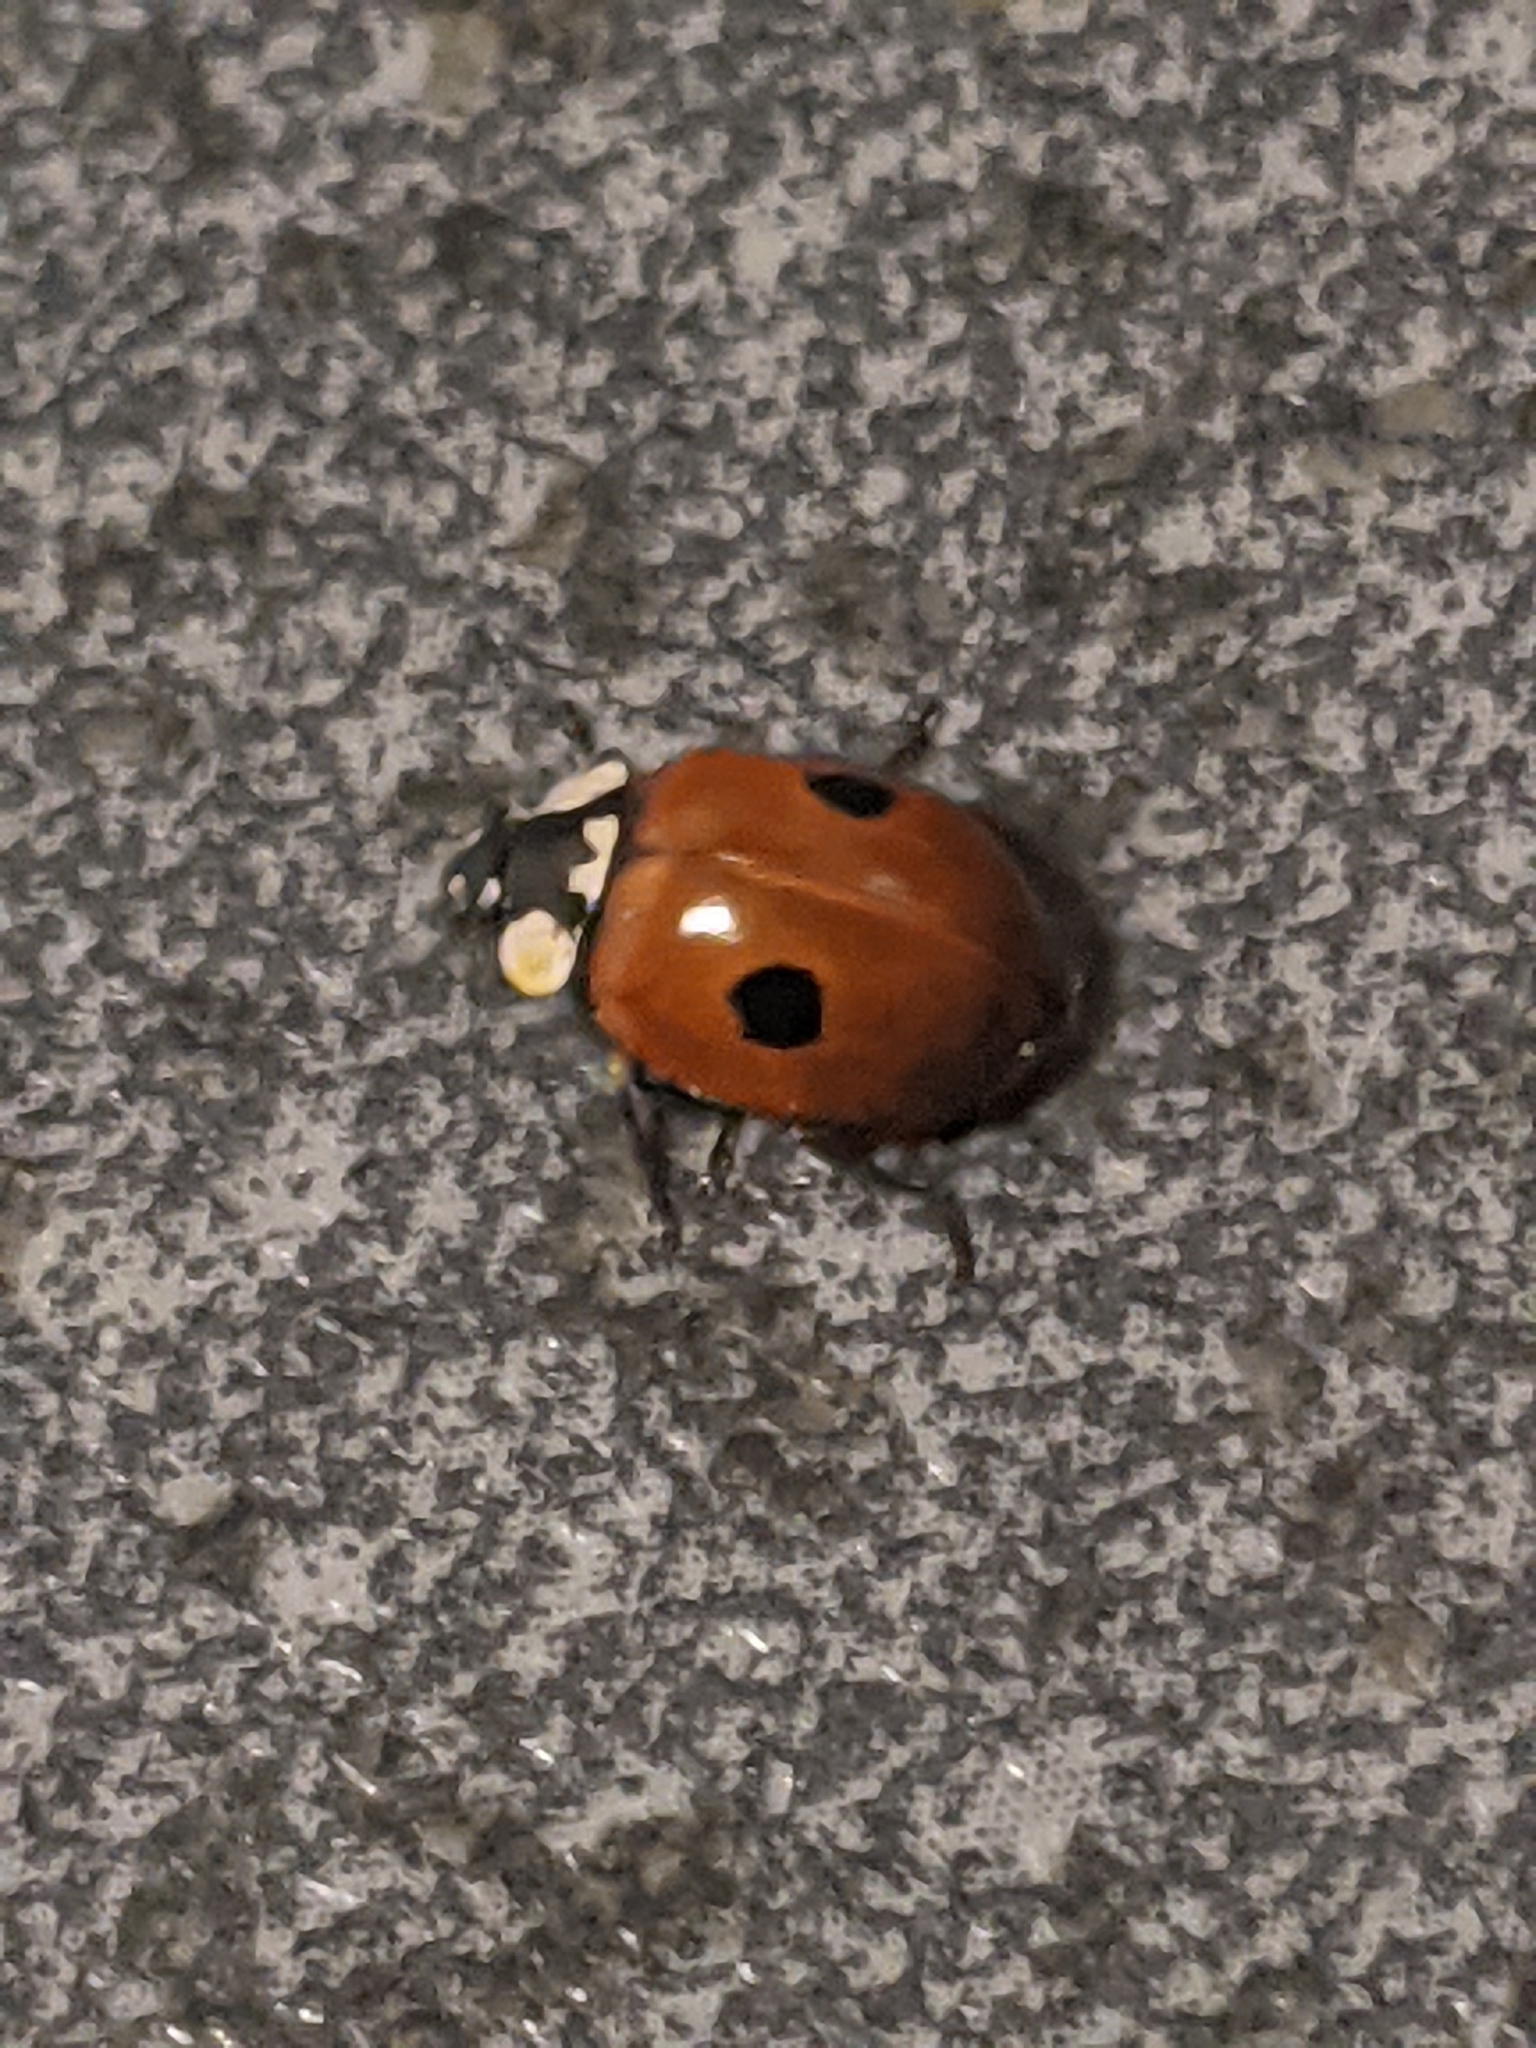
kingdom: Animalia
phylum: Arthropoda
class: Insecta
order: Coleoptera
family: Coccinellidae
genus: Adalia
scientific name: Adalia bipunctata
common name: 2-spot ladybird
